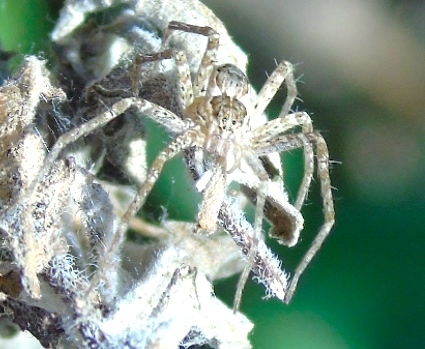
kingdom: Animalia
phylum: Arthropoda
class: Arachnida
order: Araneae
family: Pisauridae
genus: Tinus
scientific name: Tinus
